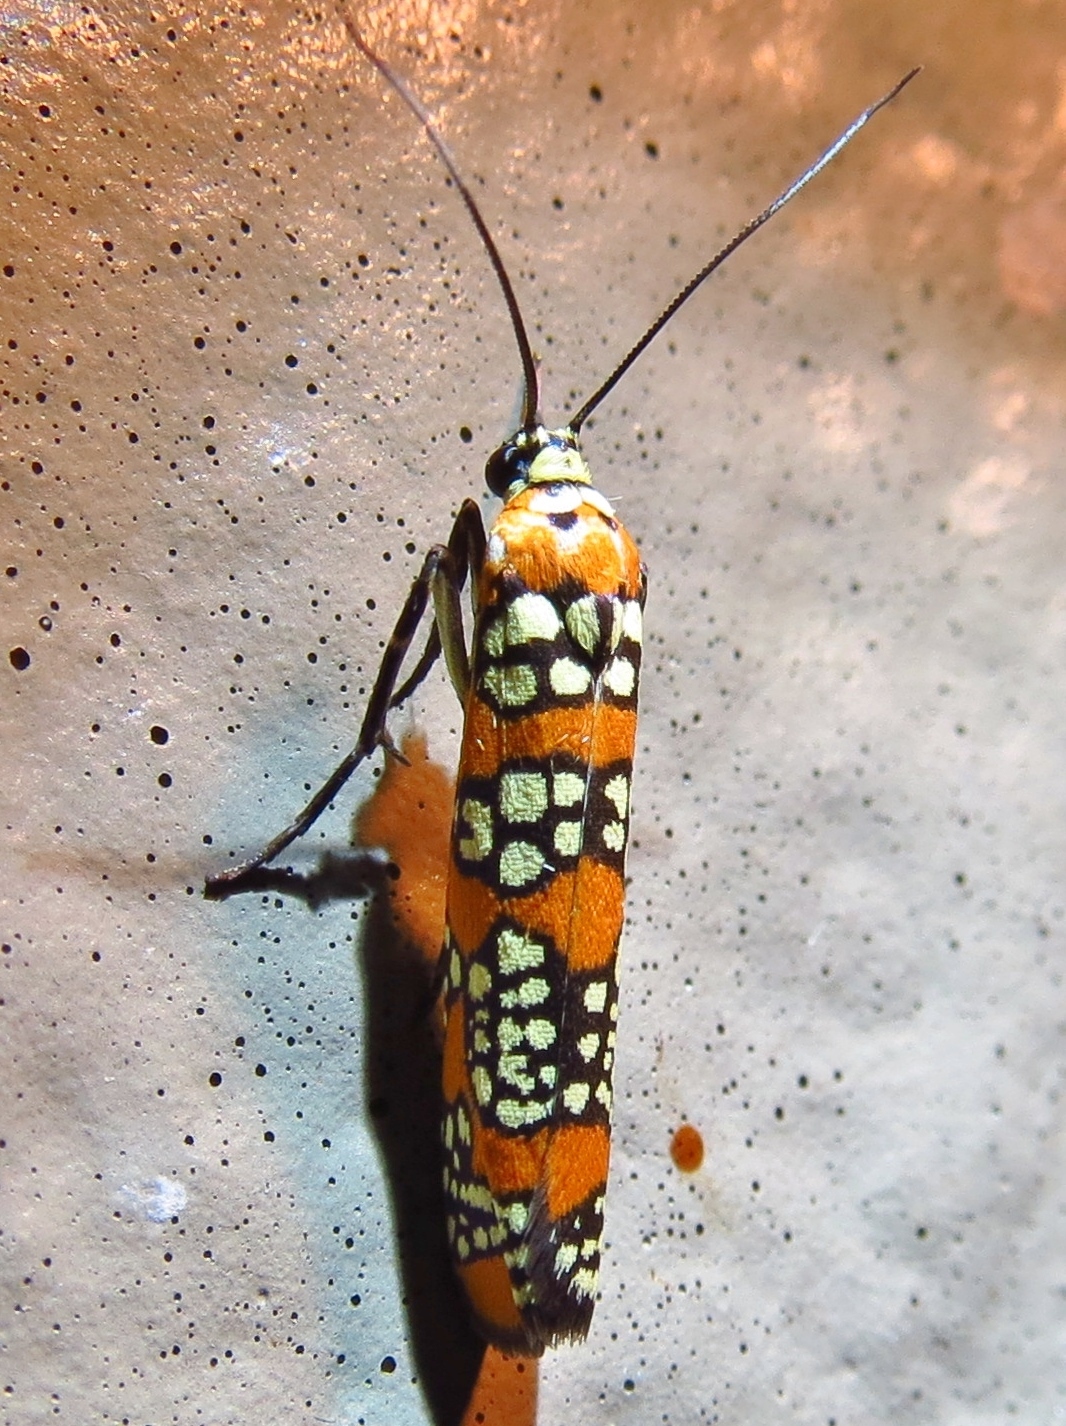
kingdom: Animalia
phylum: Arthropoda
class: Insecta
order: Lepidoptera
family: Attevidae
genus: Atteva
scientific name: Atteva punctella
